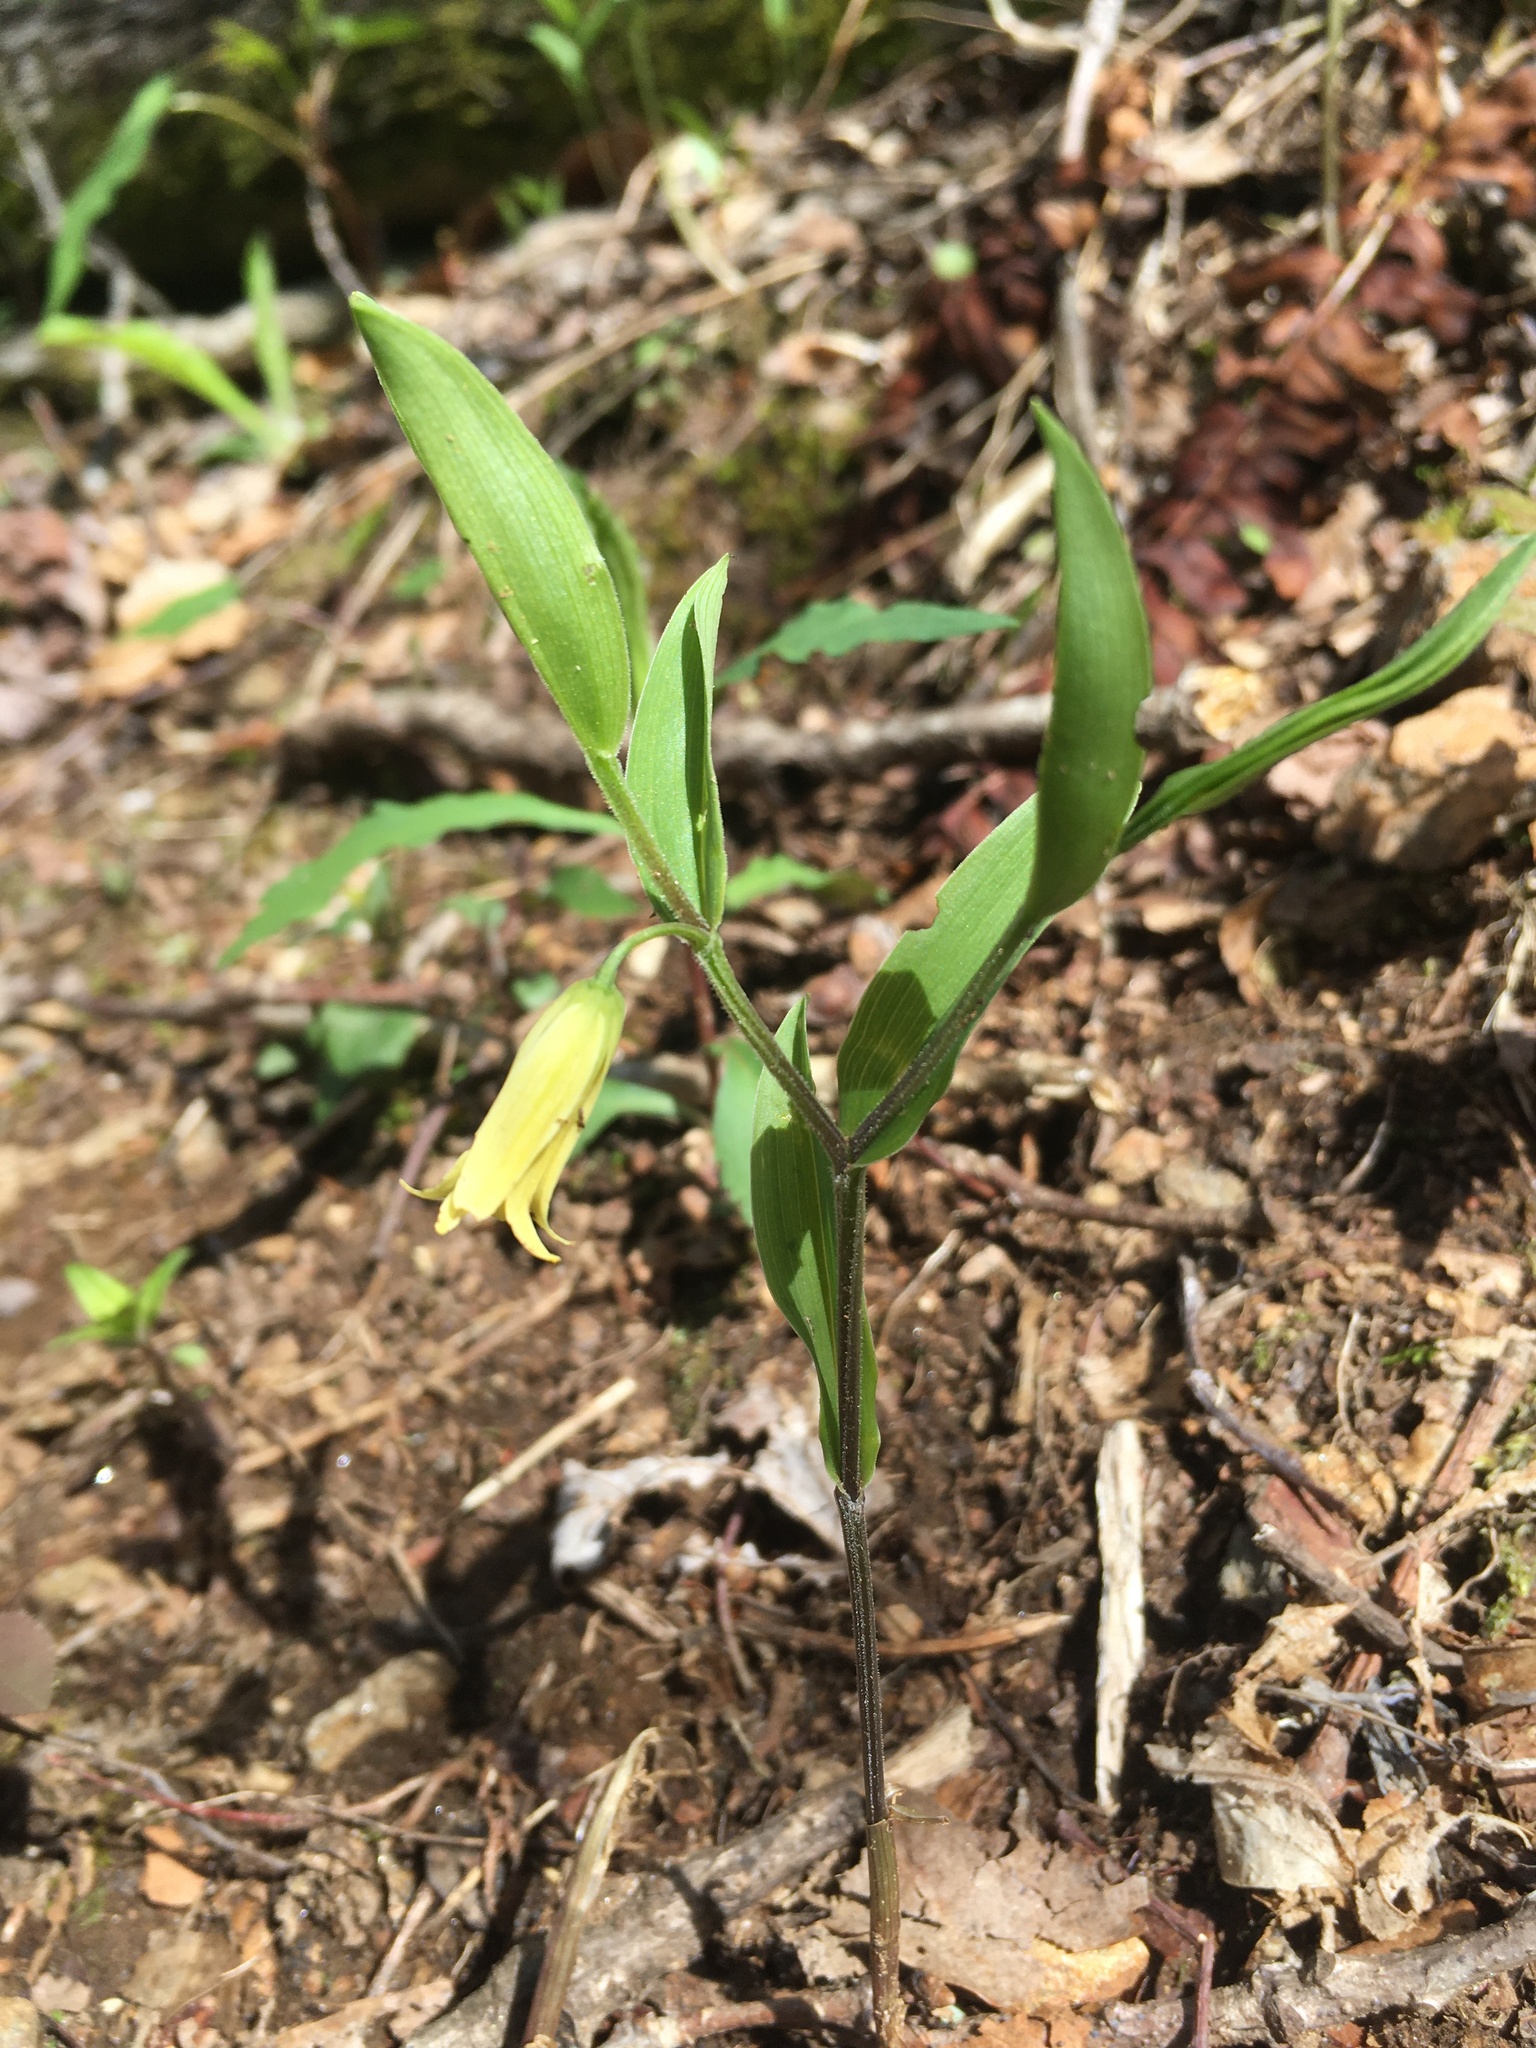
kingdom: Plantae
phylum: Tracheophyta
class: Liliopsida
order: Liliales
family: Colchicaceae
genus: Uvularia
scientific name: Uvularia puberula
